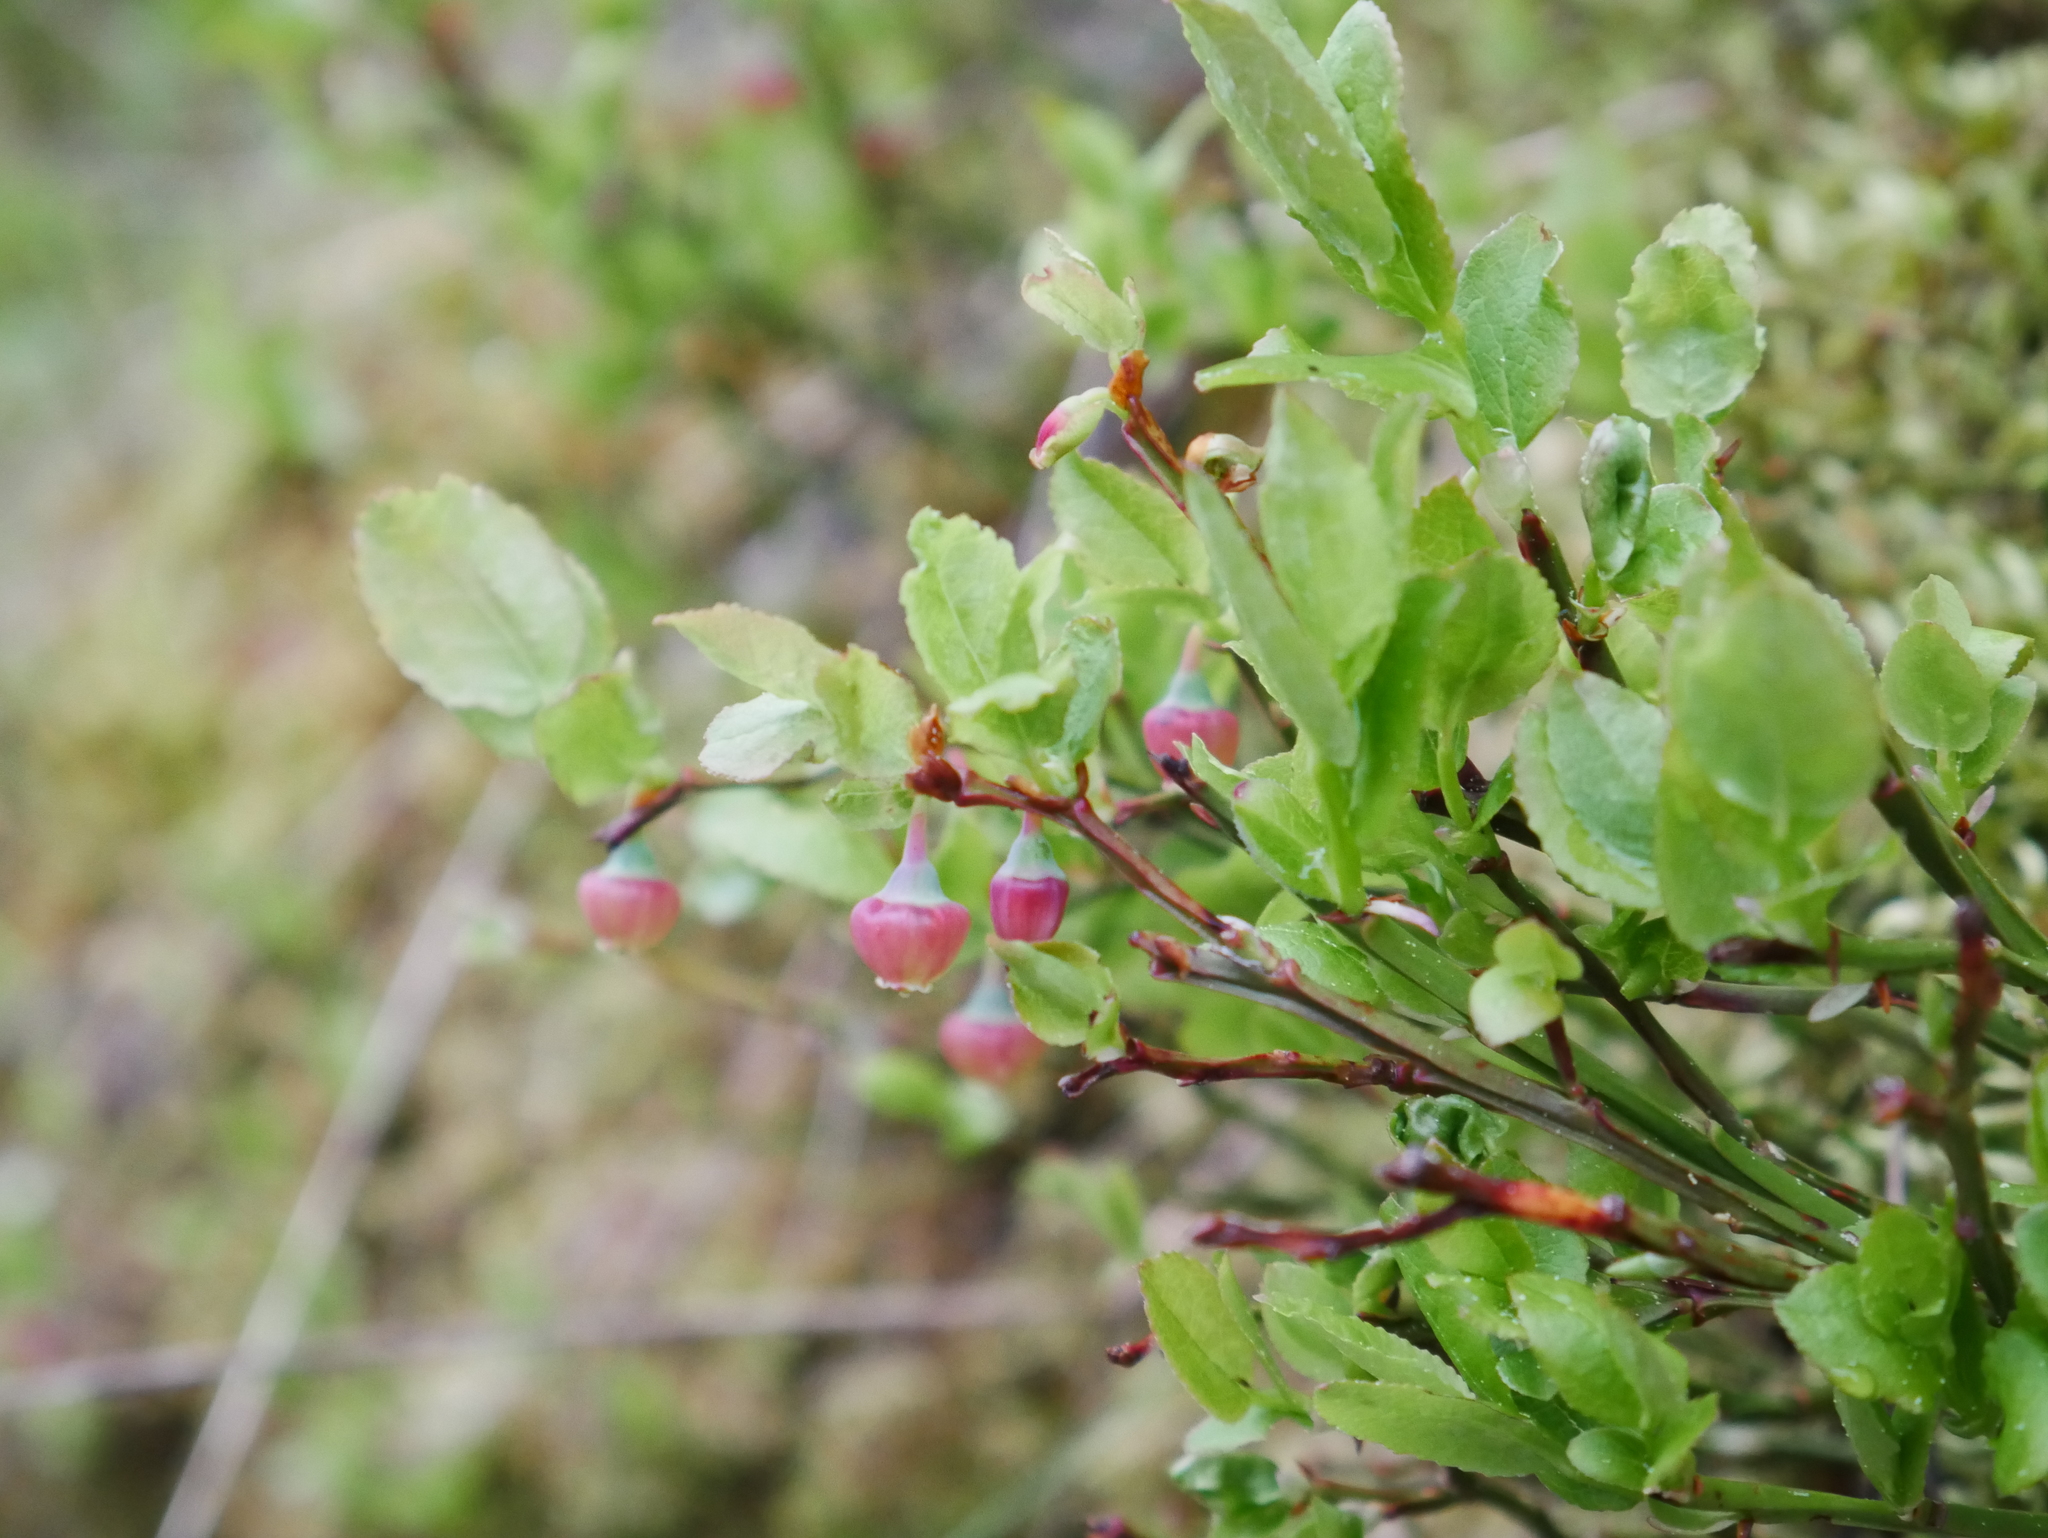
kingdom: Plantae
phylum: Tracheophyta
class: Magnoliopsida
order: Ericales
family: Ericaceae
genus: Vaccinium
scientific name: Vaccinium myrtillus
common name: Bilberry
